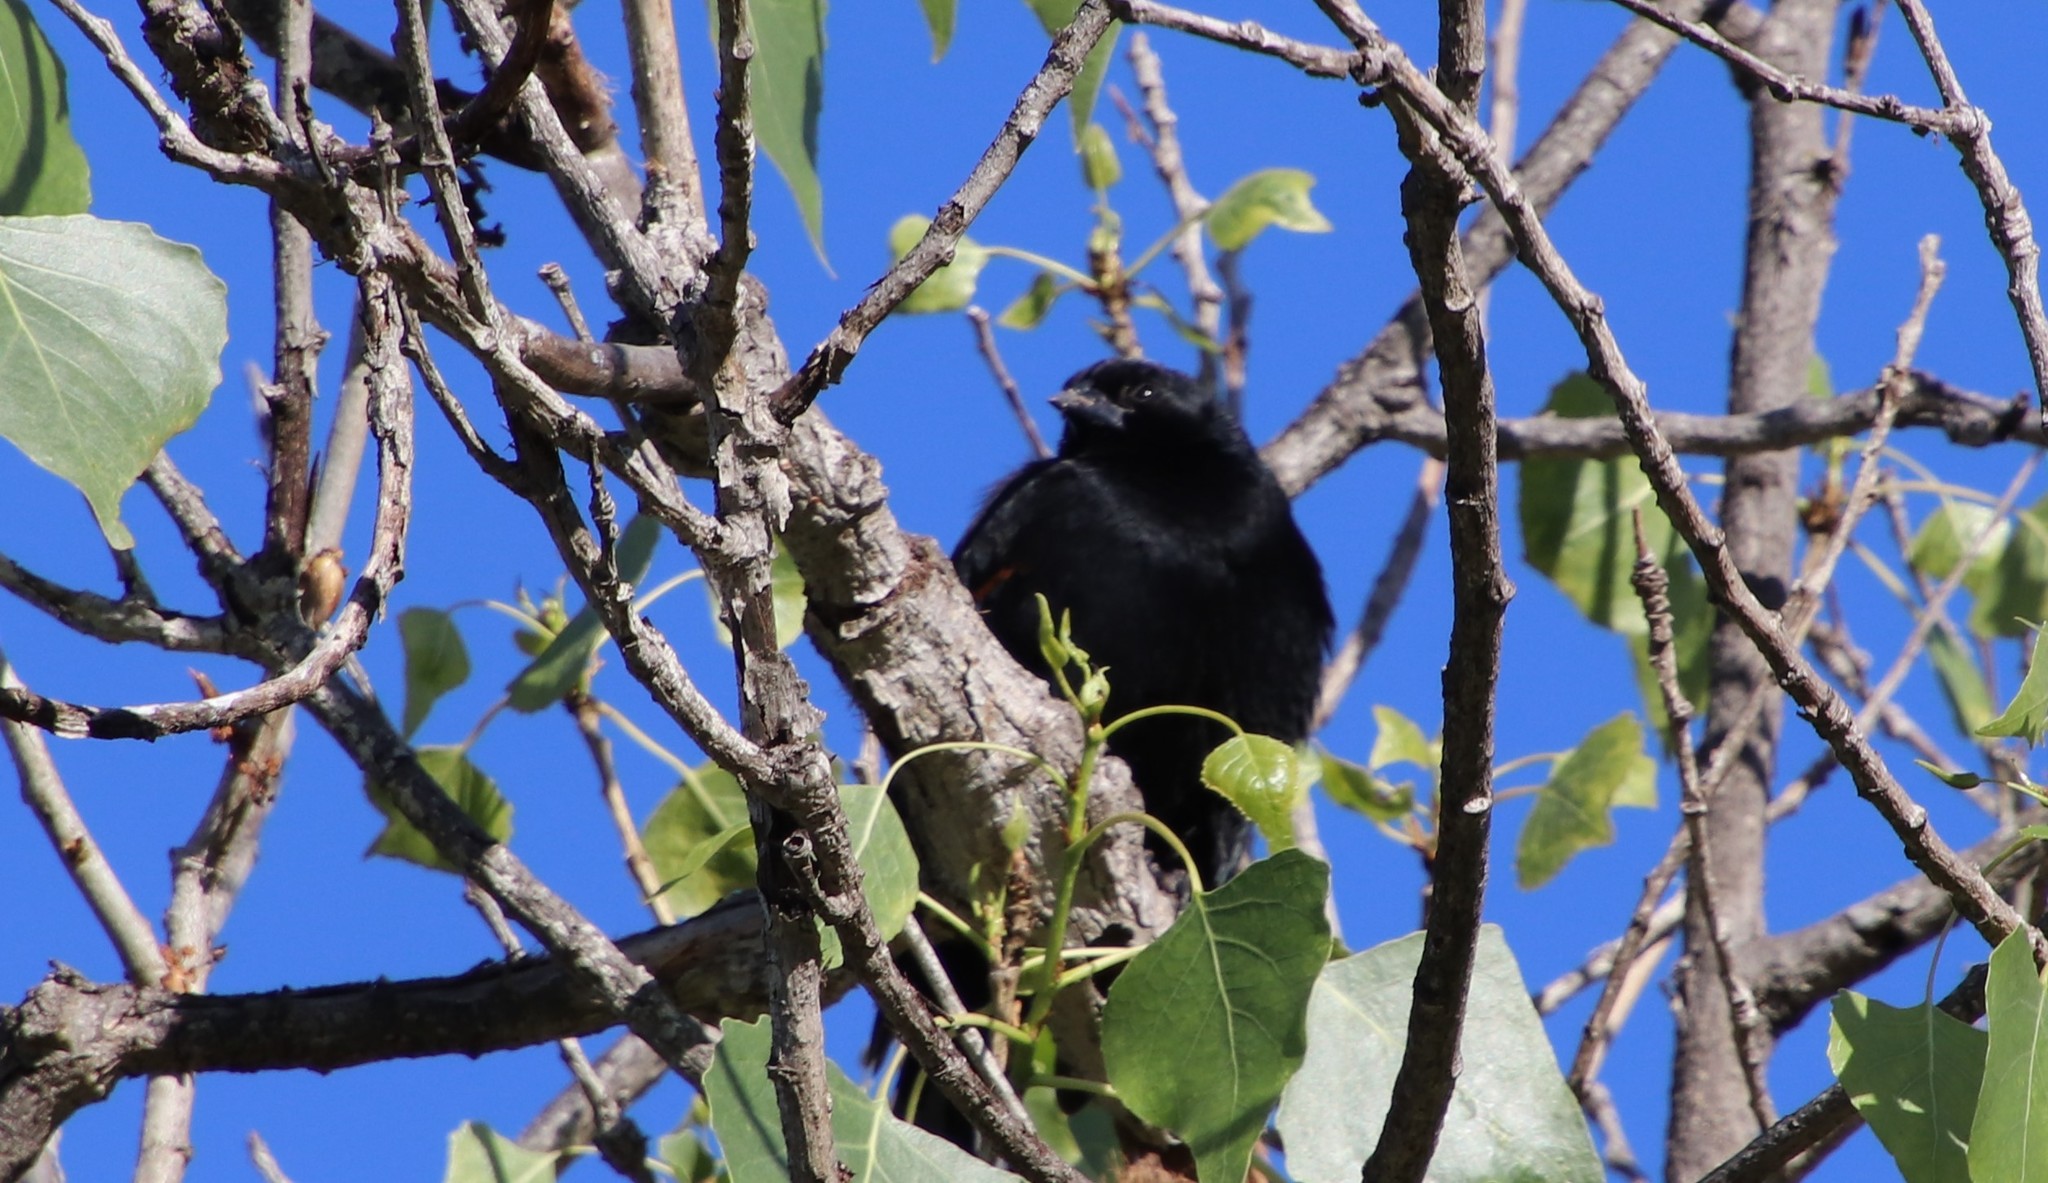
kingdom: Animalia
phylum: Chordata
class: Aves
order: Passeriformes
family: Icteridae
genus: Agelaius
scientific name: Agelaius phoeniceus
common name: Red-winged blackbird
